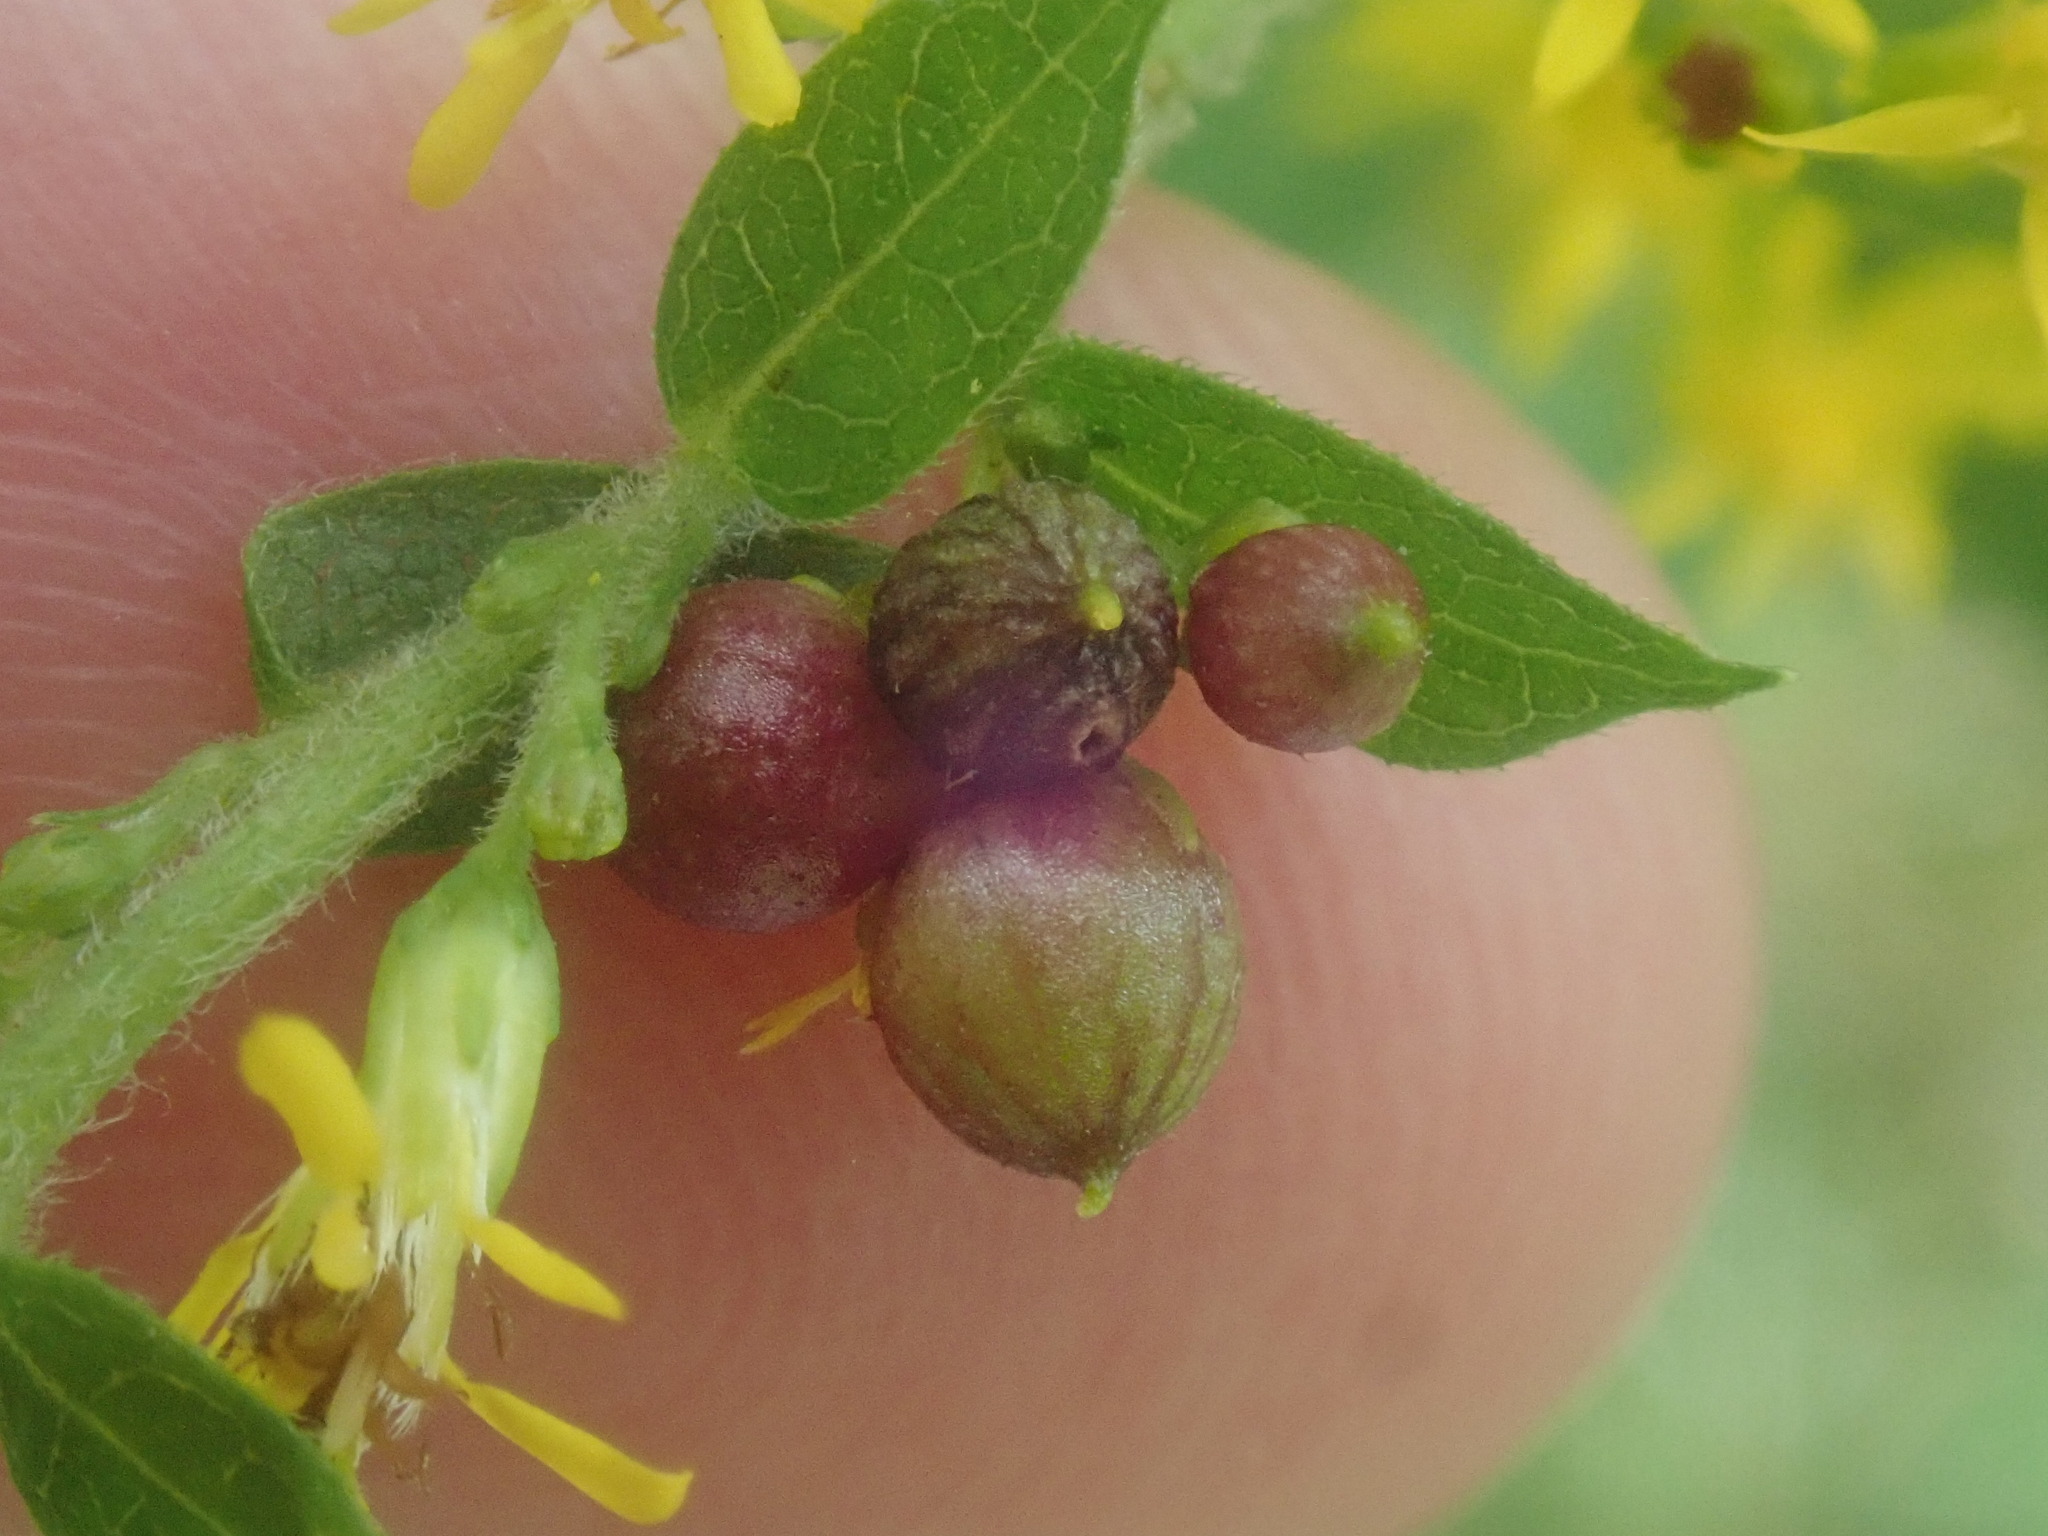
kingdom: Animalia
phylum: Arthropoda
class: Insecta
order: Diptera
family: Cecidomyiidae
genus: Schizomyia
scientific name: Schizomyia racemicola
